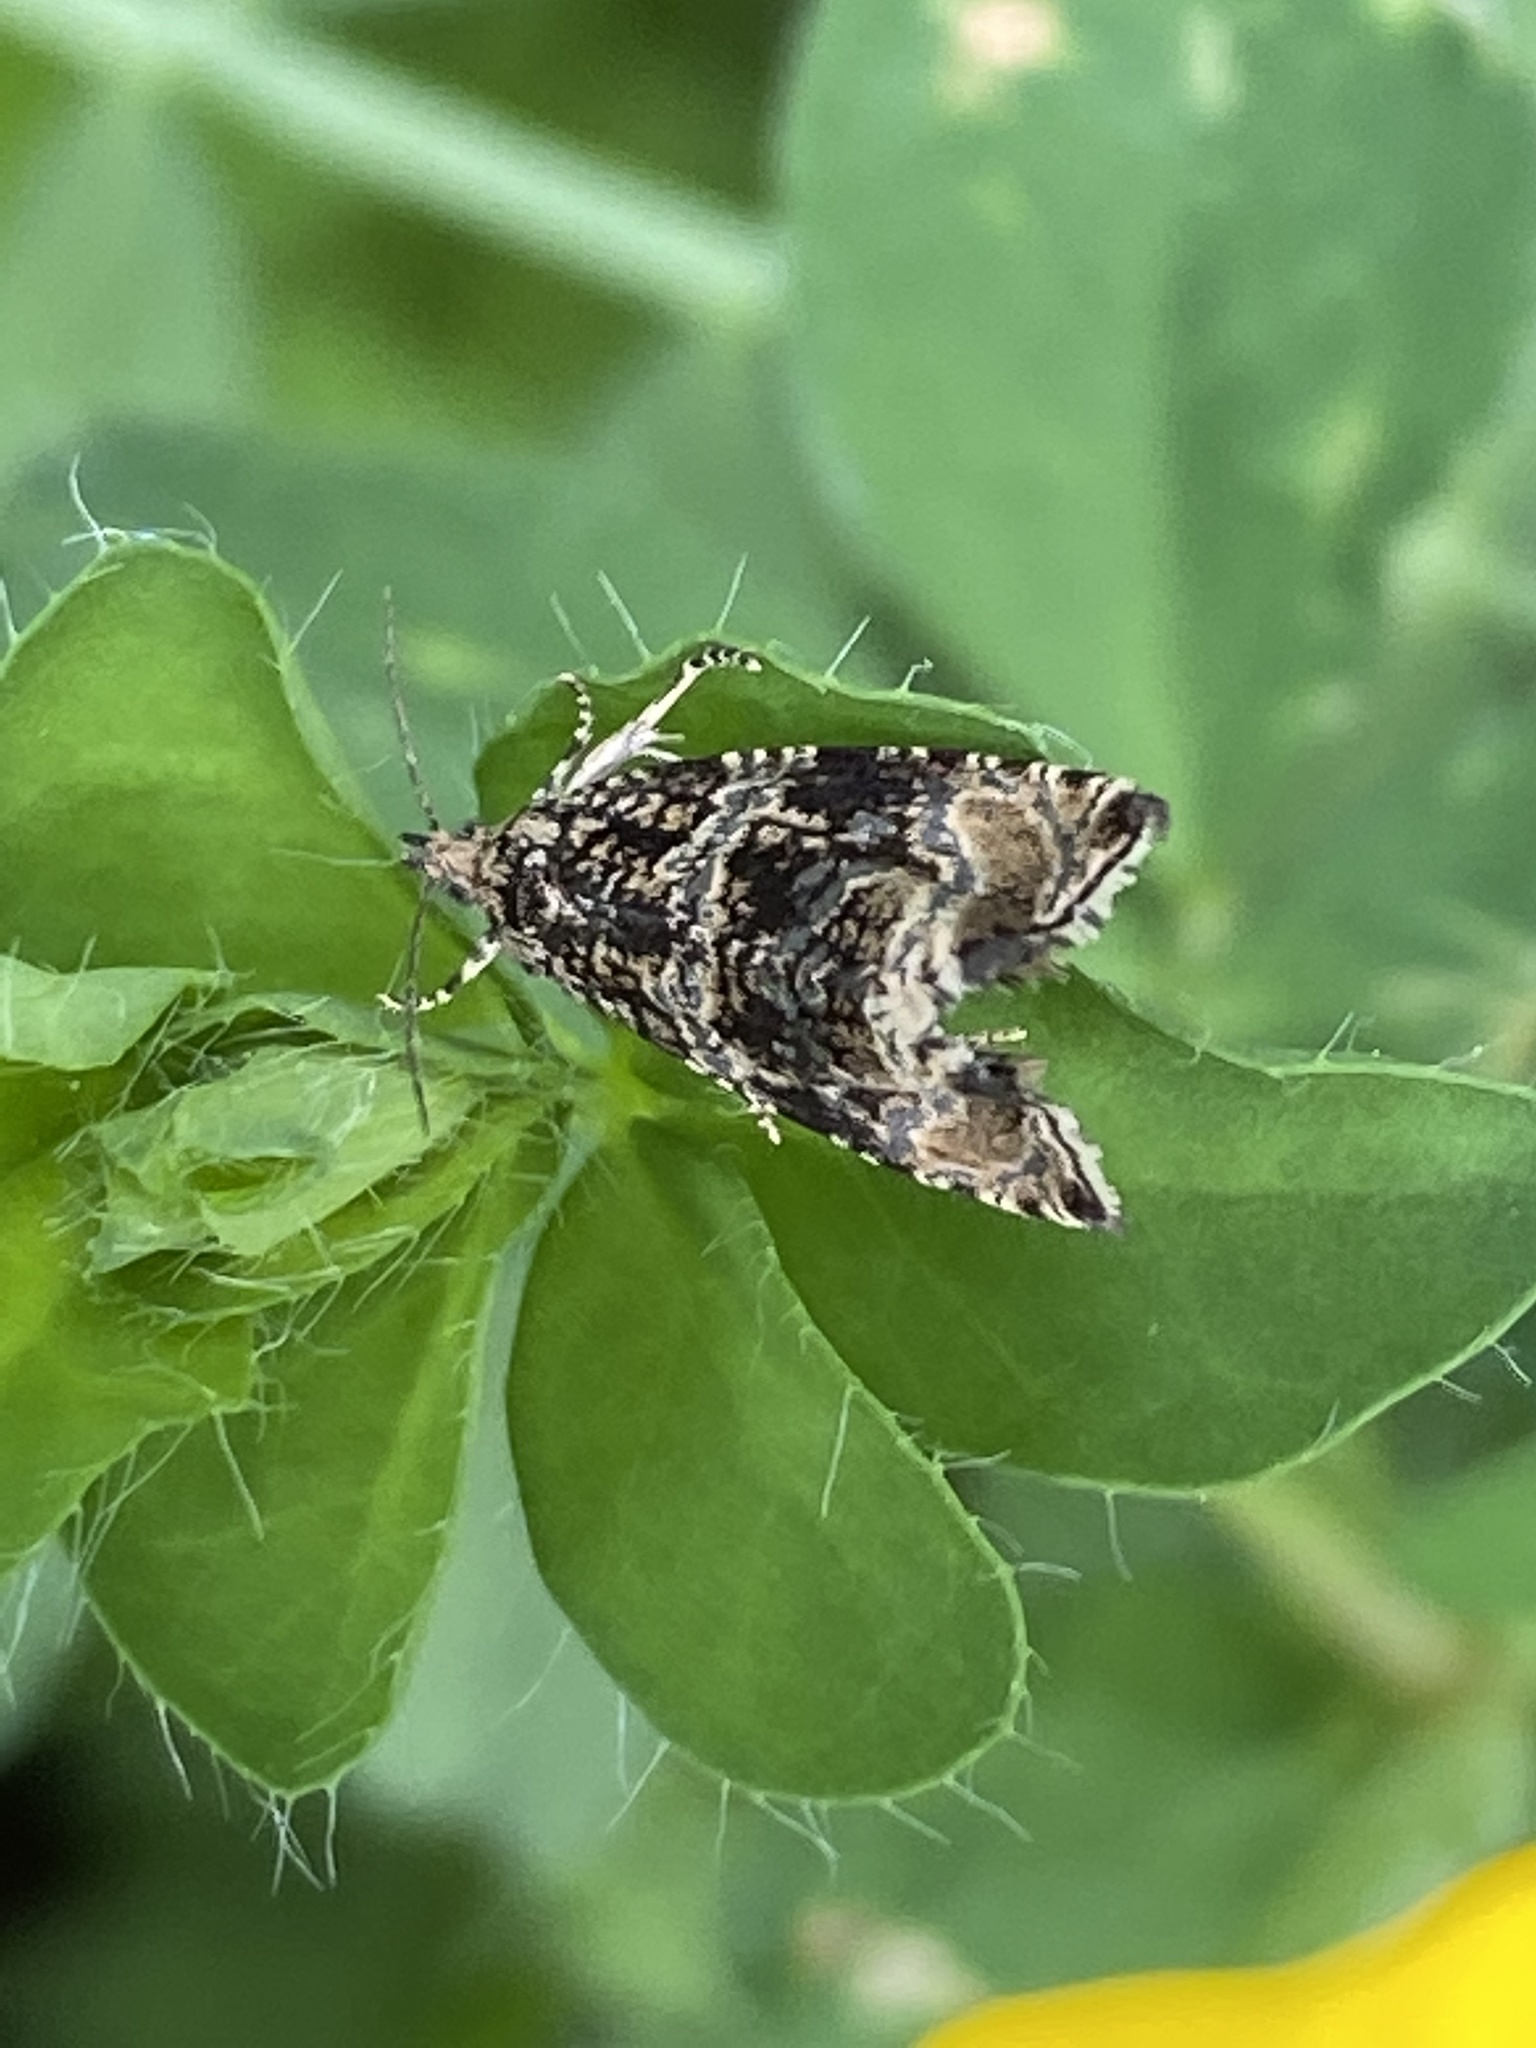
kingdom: Animalia
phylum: Arthropoda
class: Insecta
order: Lepidoptera
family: Tortricidae
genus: Syricoris
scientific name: Syricoris lacunana
